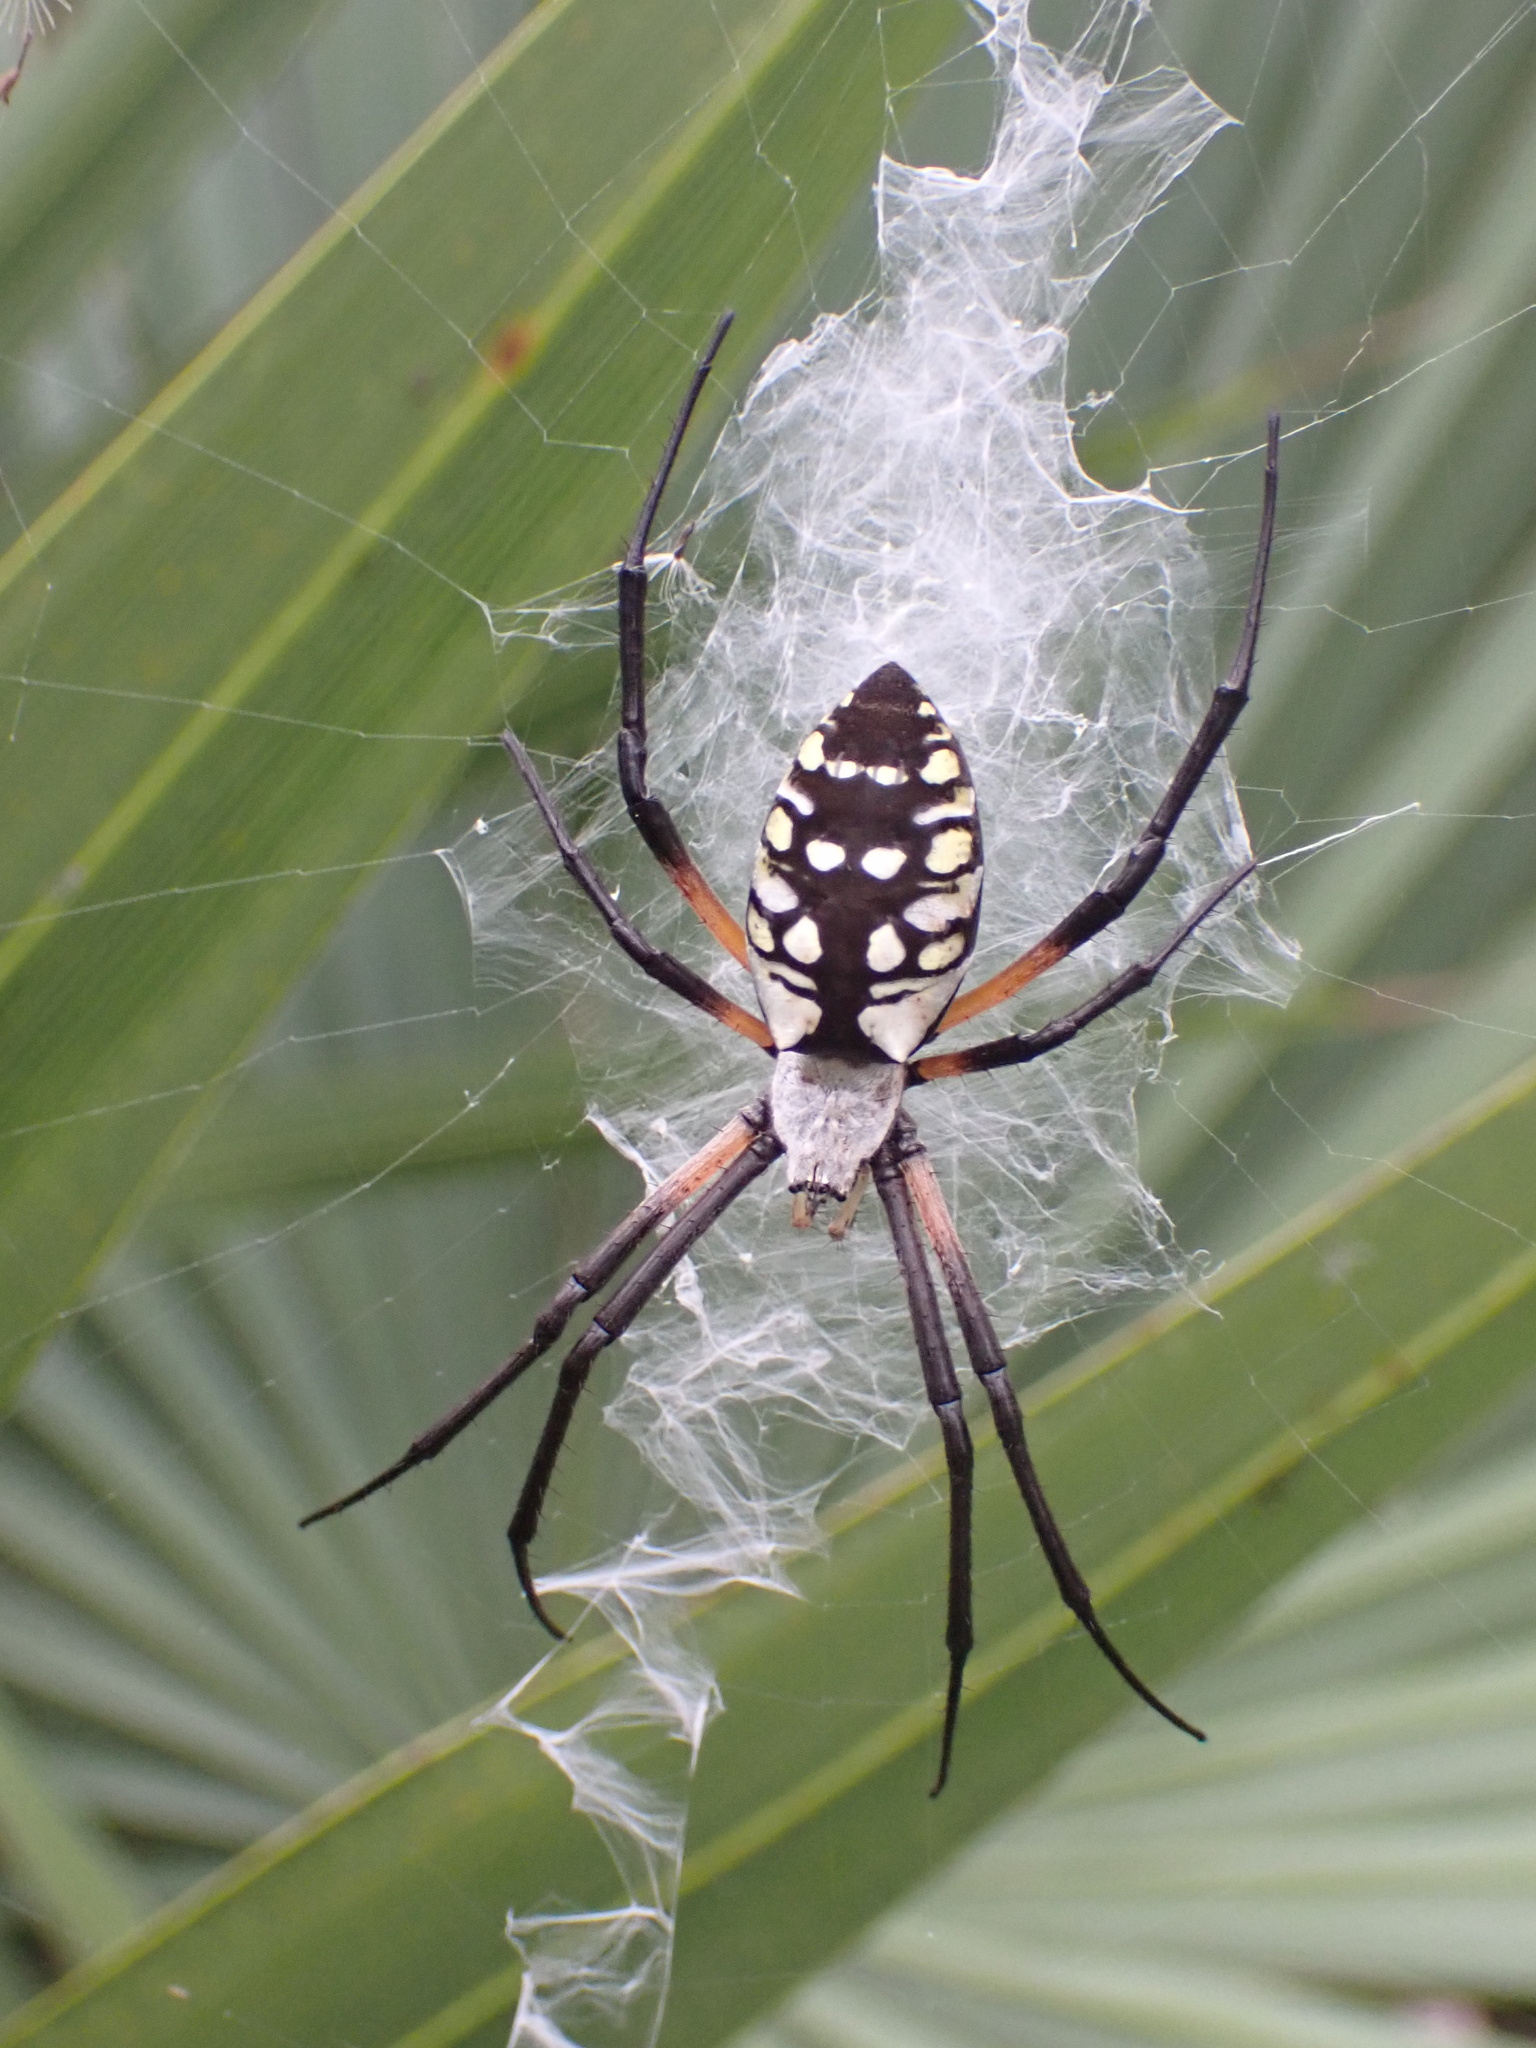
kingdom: Animalia
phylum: Arthropoda
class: Arachnida
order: Araneae
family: Araneidae
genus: Argiope
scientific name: Argiope aurantia
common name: Orb weavers
